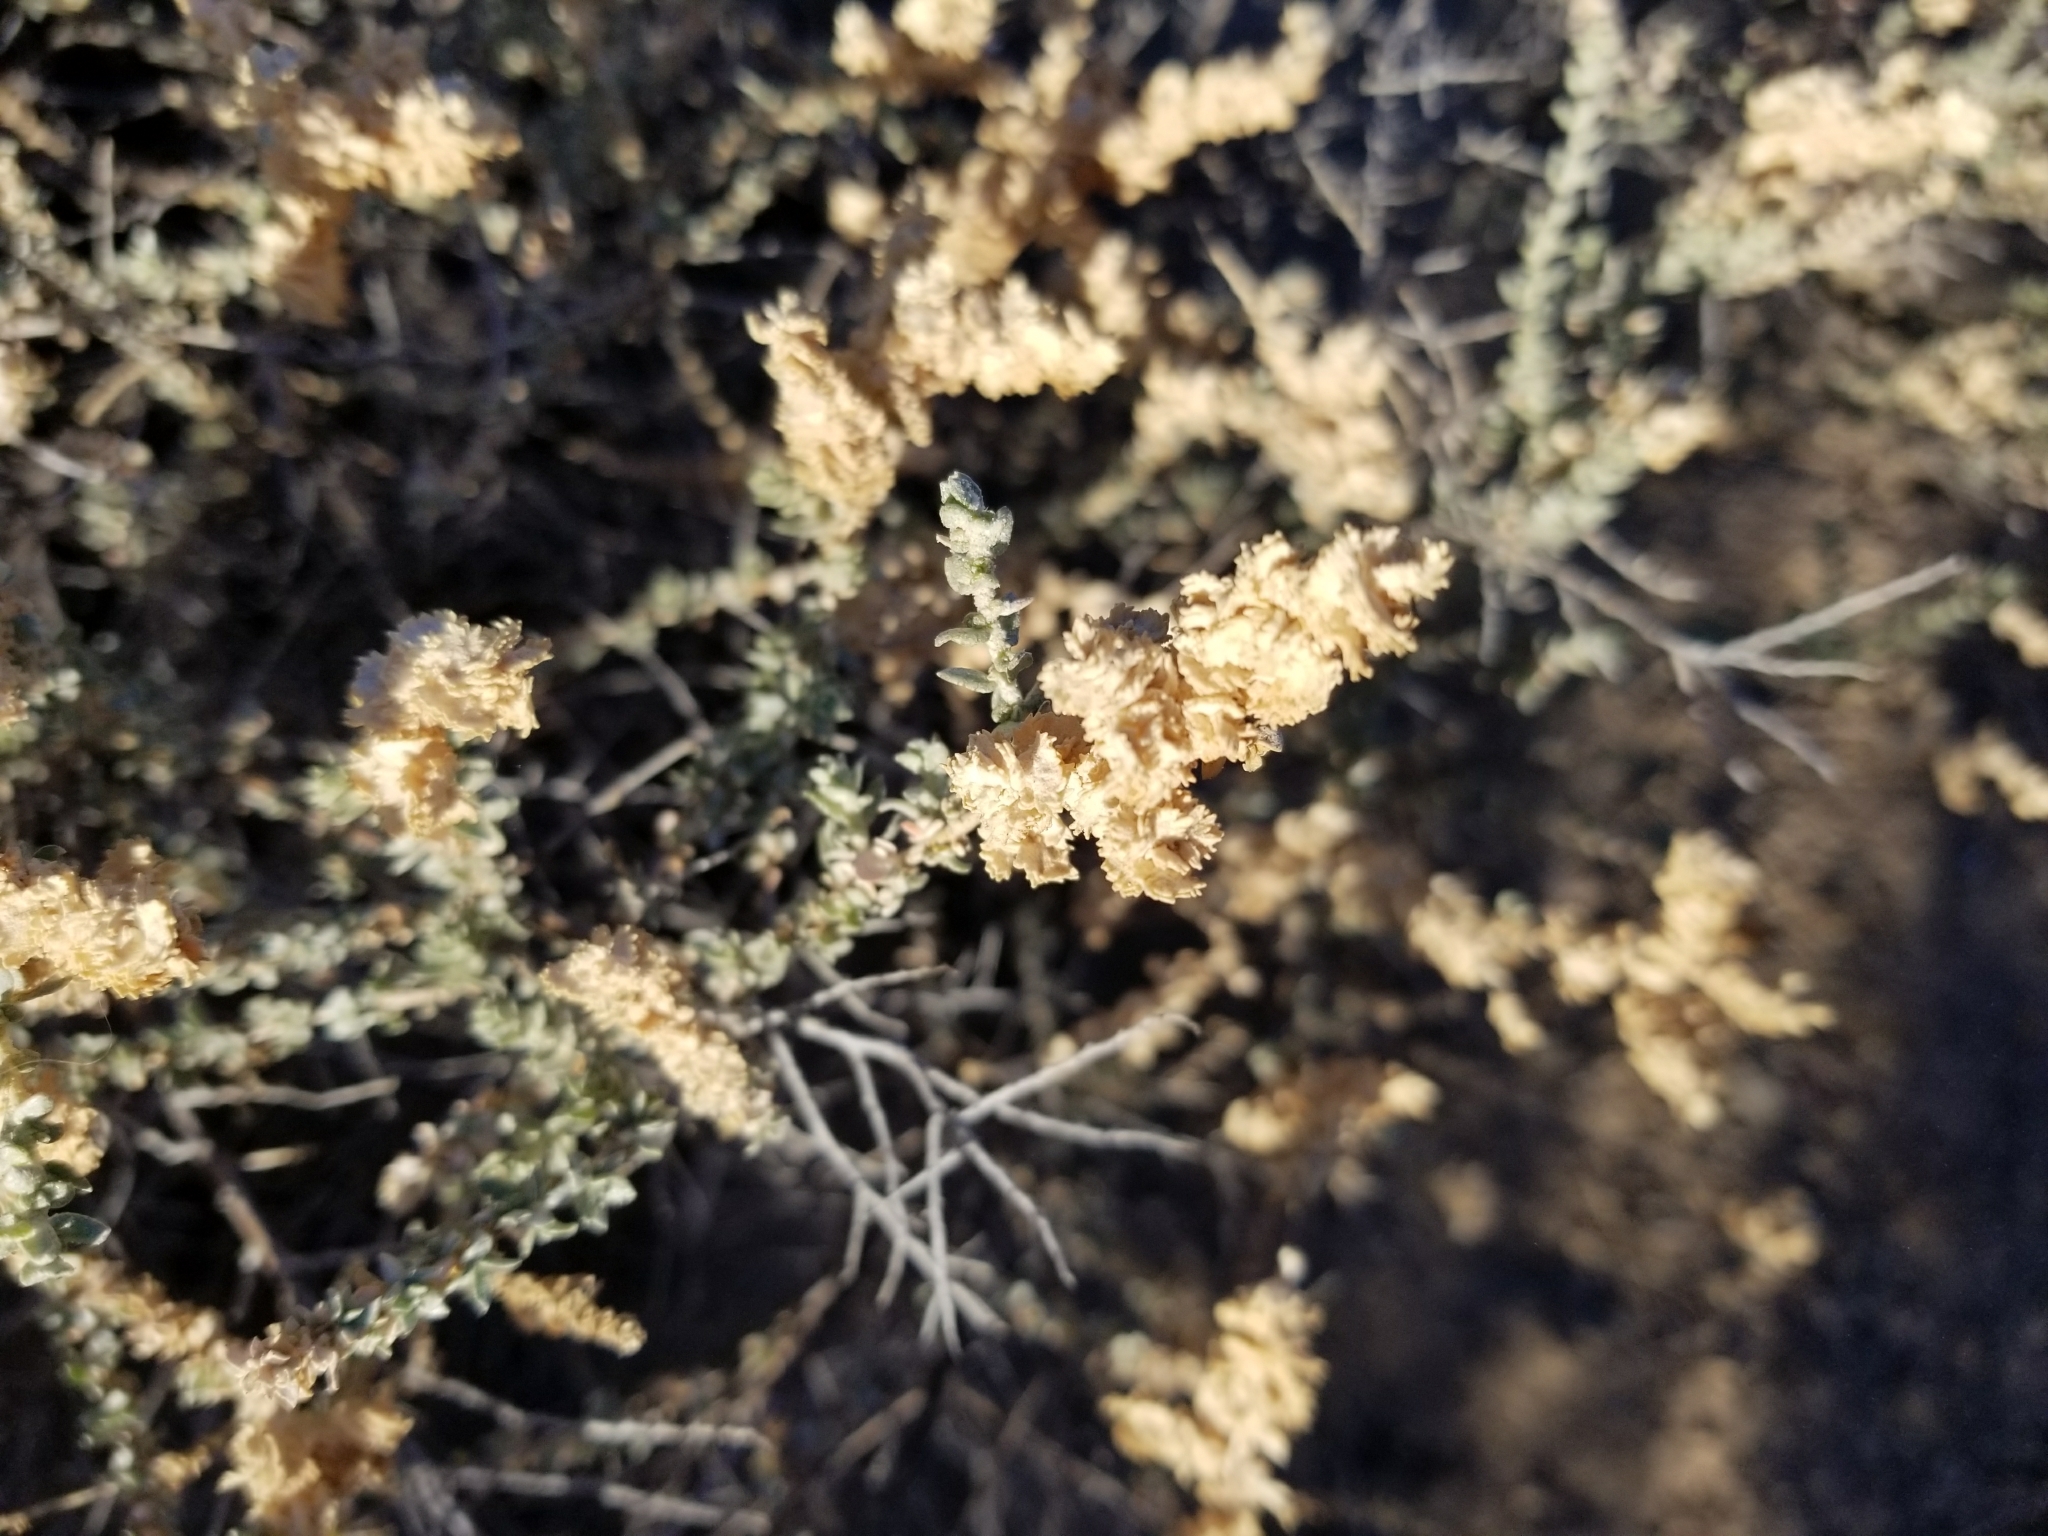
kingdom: Plantae
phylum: Tracheophyta
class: Magnoliopsida
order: Caryophyllales
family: Amaranthaceae
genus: Atriplex
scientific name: Atriplex polycarpa
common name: Desert saltbush
